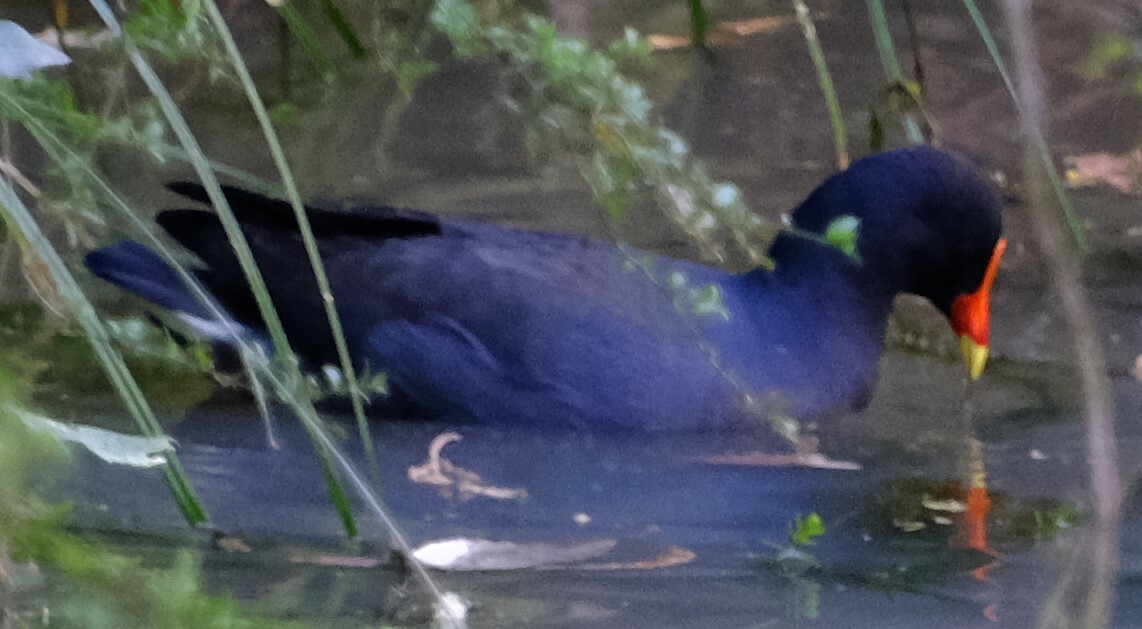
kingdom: Animalia
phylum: Chordata
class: Aves
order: Gruiformes
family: Rallidae
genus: Gallinula
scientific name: Gallinula tenebrosa
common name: Dusky moorhen
